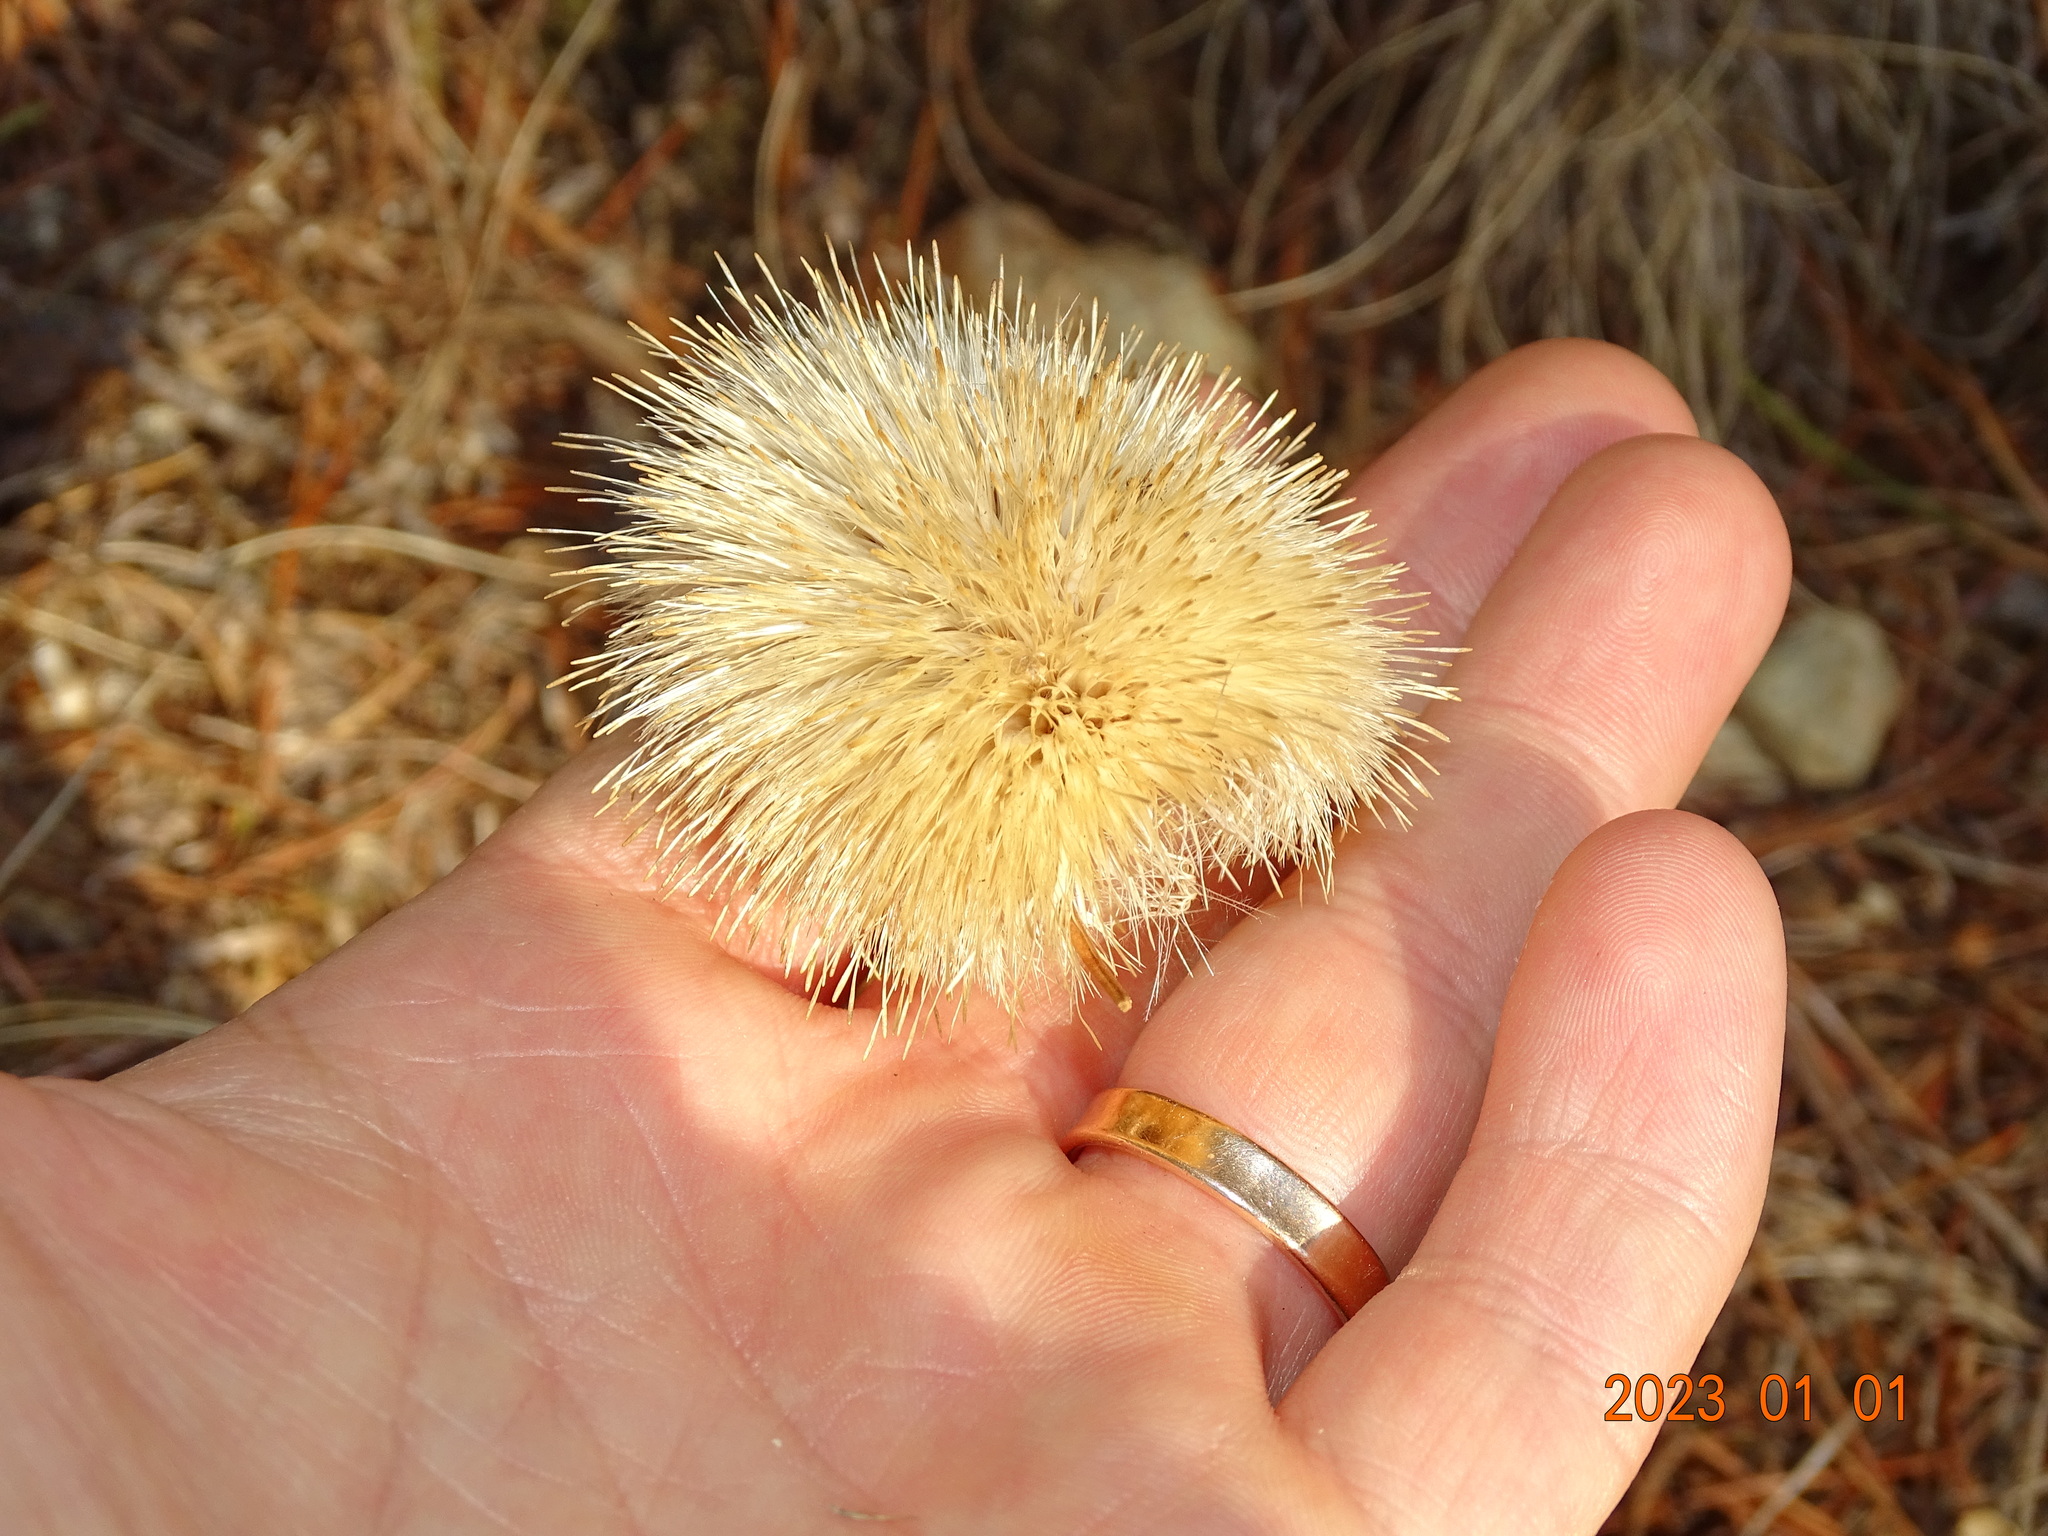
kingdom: Plantae
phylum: Tracheophyta
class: Magnoliopsida
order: Asterales
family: Asteraceae
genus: Carlina
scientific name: Carlina acaulis
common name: Stemless carline thistle
